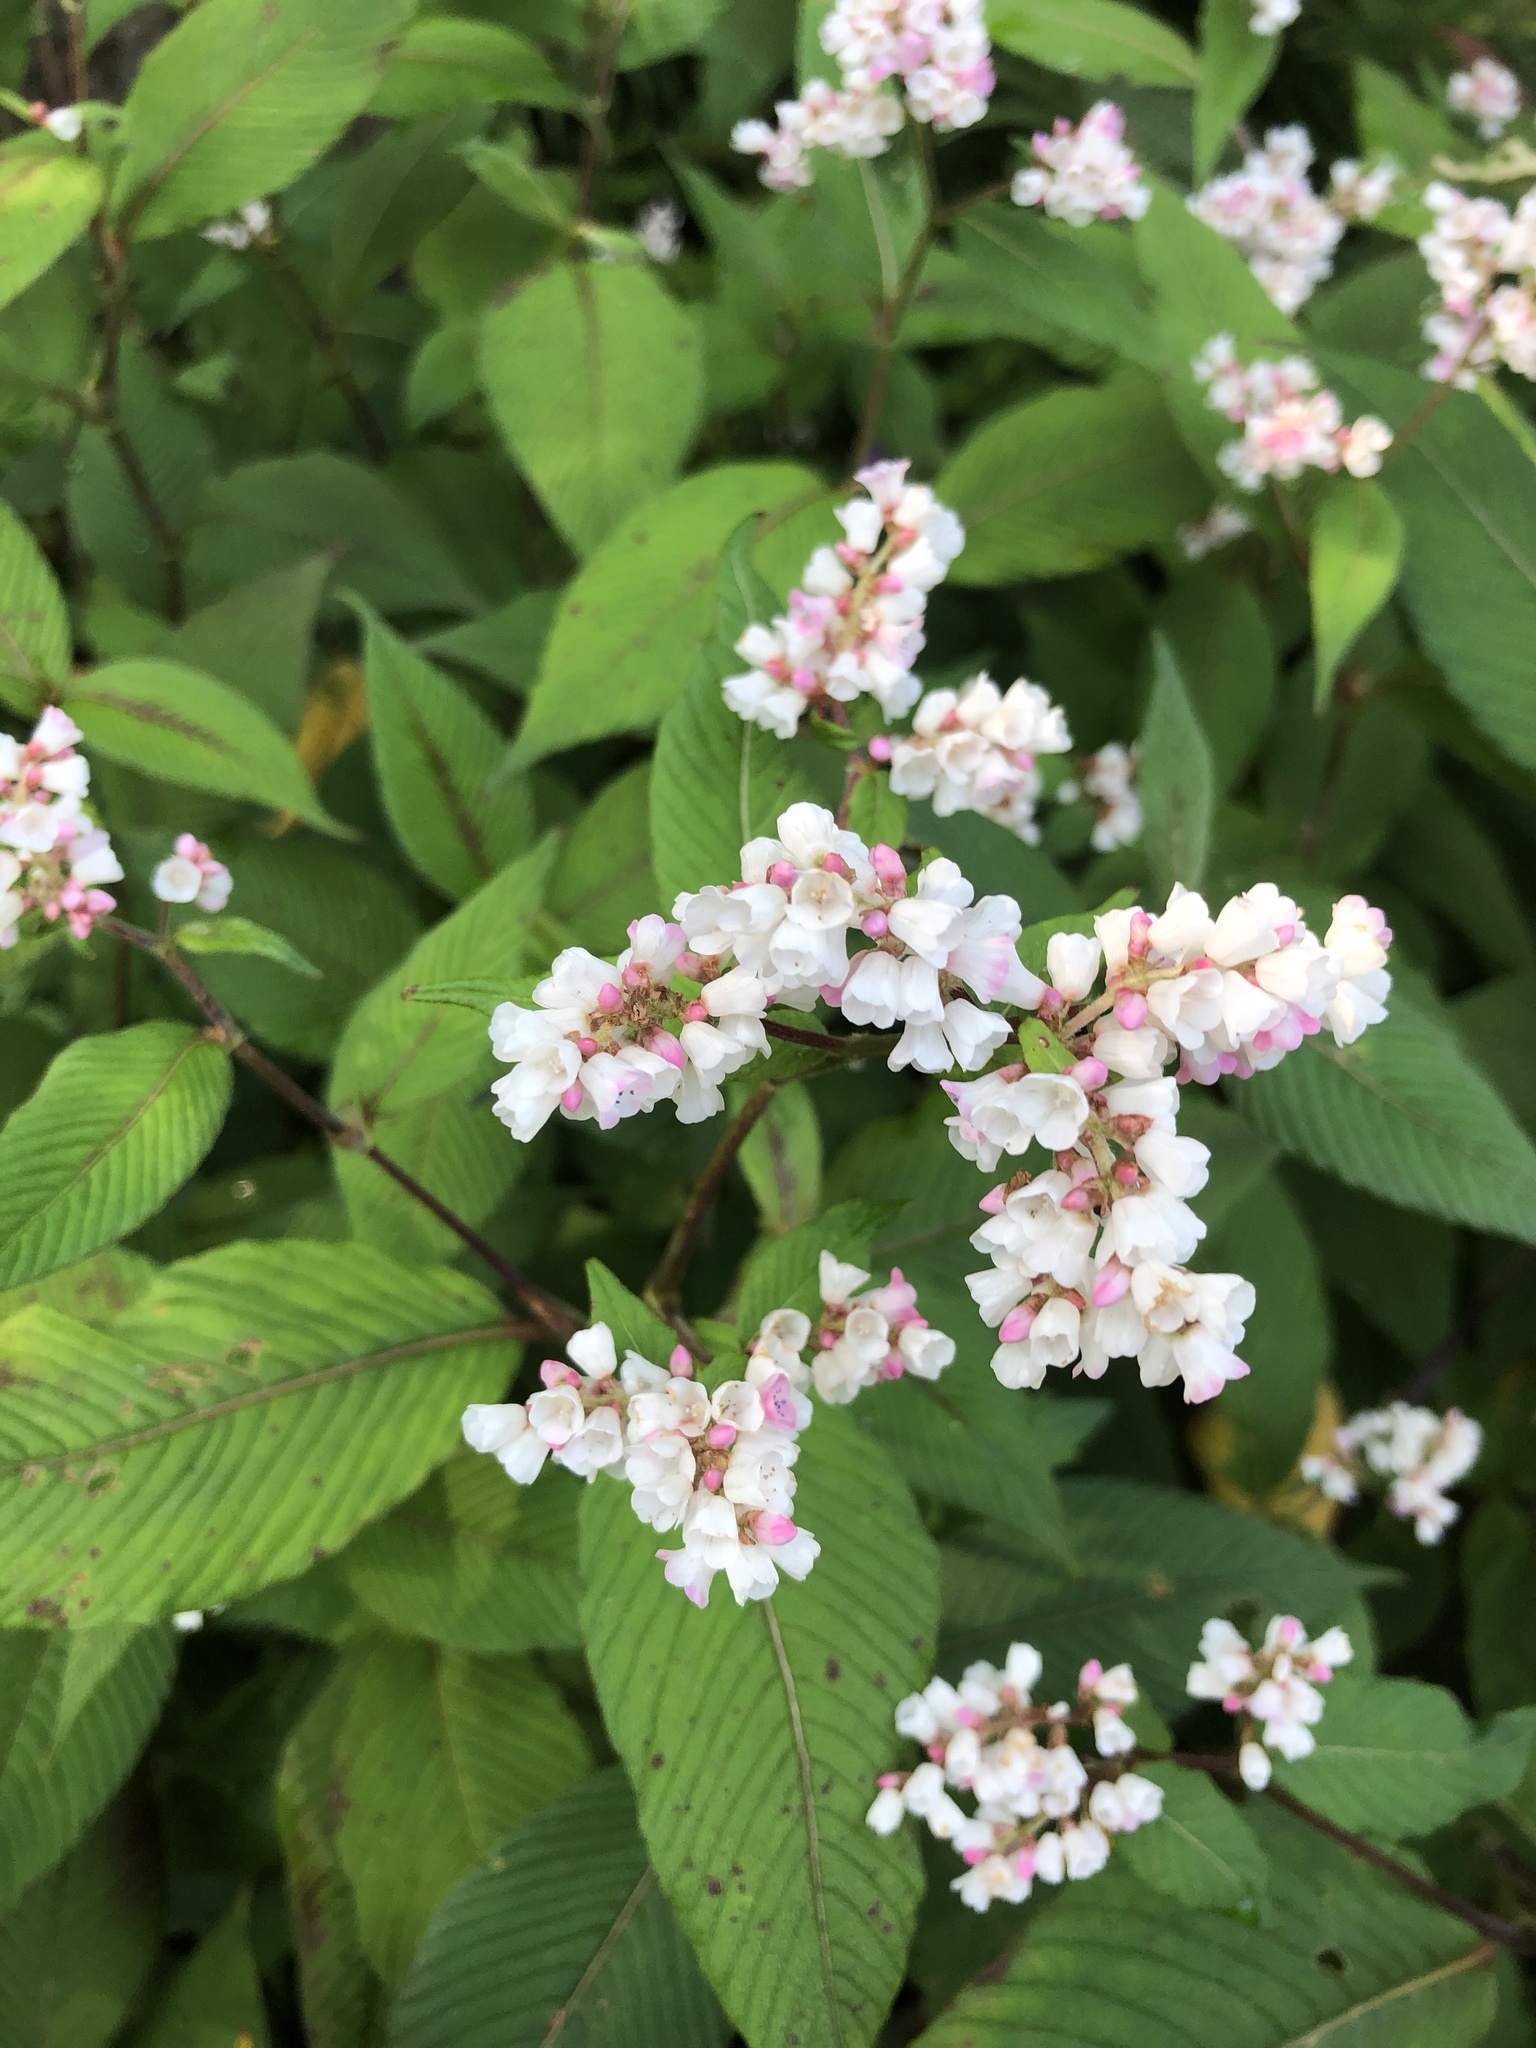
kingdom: Plantae
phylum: Tracheophyta
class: Magnoliopsida
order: Caryophyllales
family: Polygonaceae
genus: Koenigia
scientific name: Koenigia campanulata
